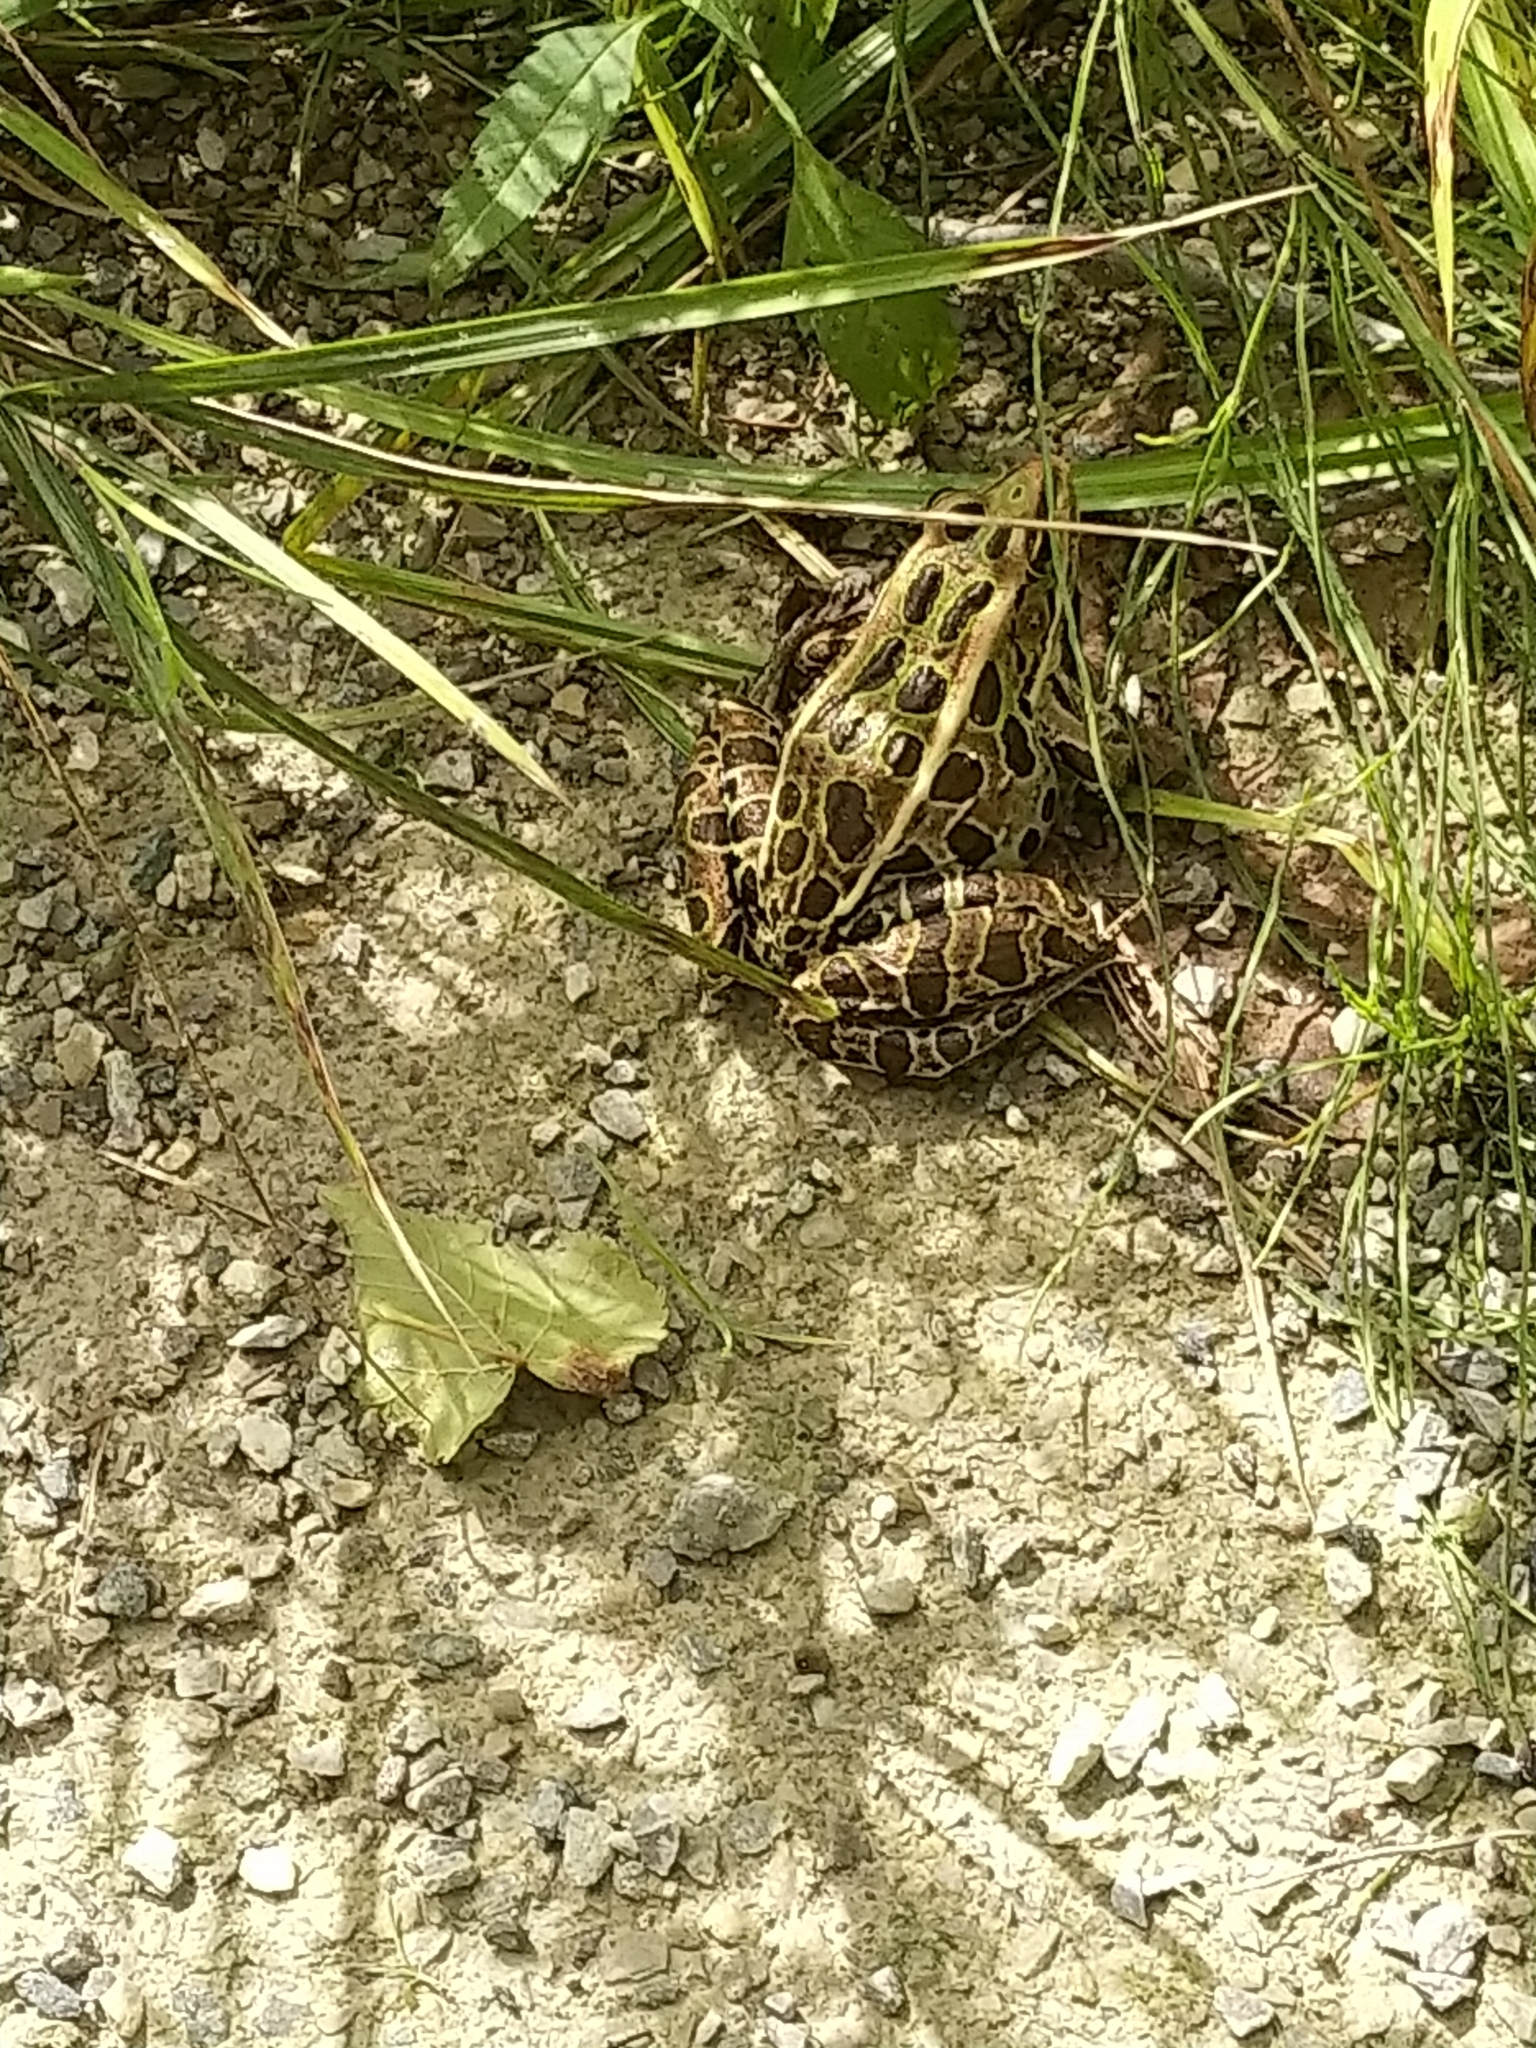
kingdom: Animalia
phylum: Chordata
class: Amphibia
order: Anura
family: Ranidae
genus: Lithobates
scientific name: Lithobates pipiens
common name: Northern leopard frog
